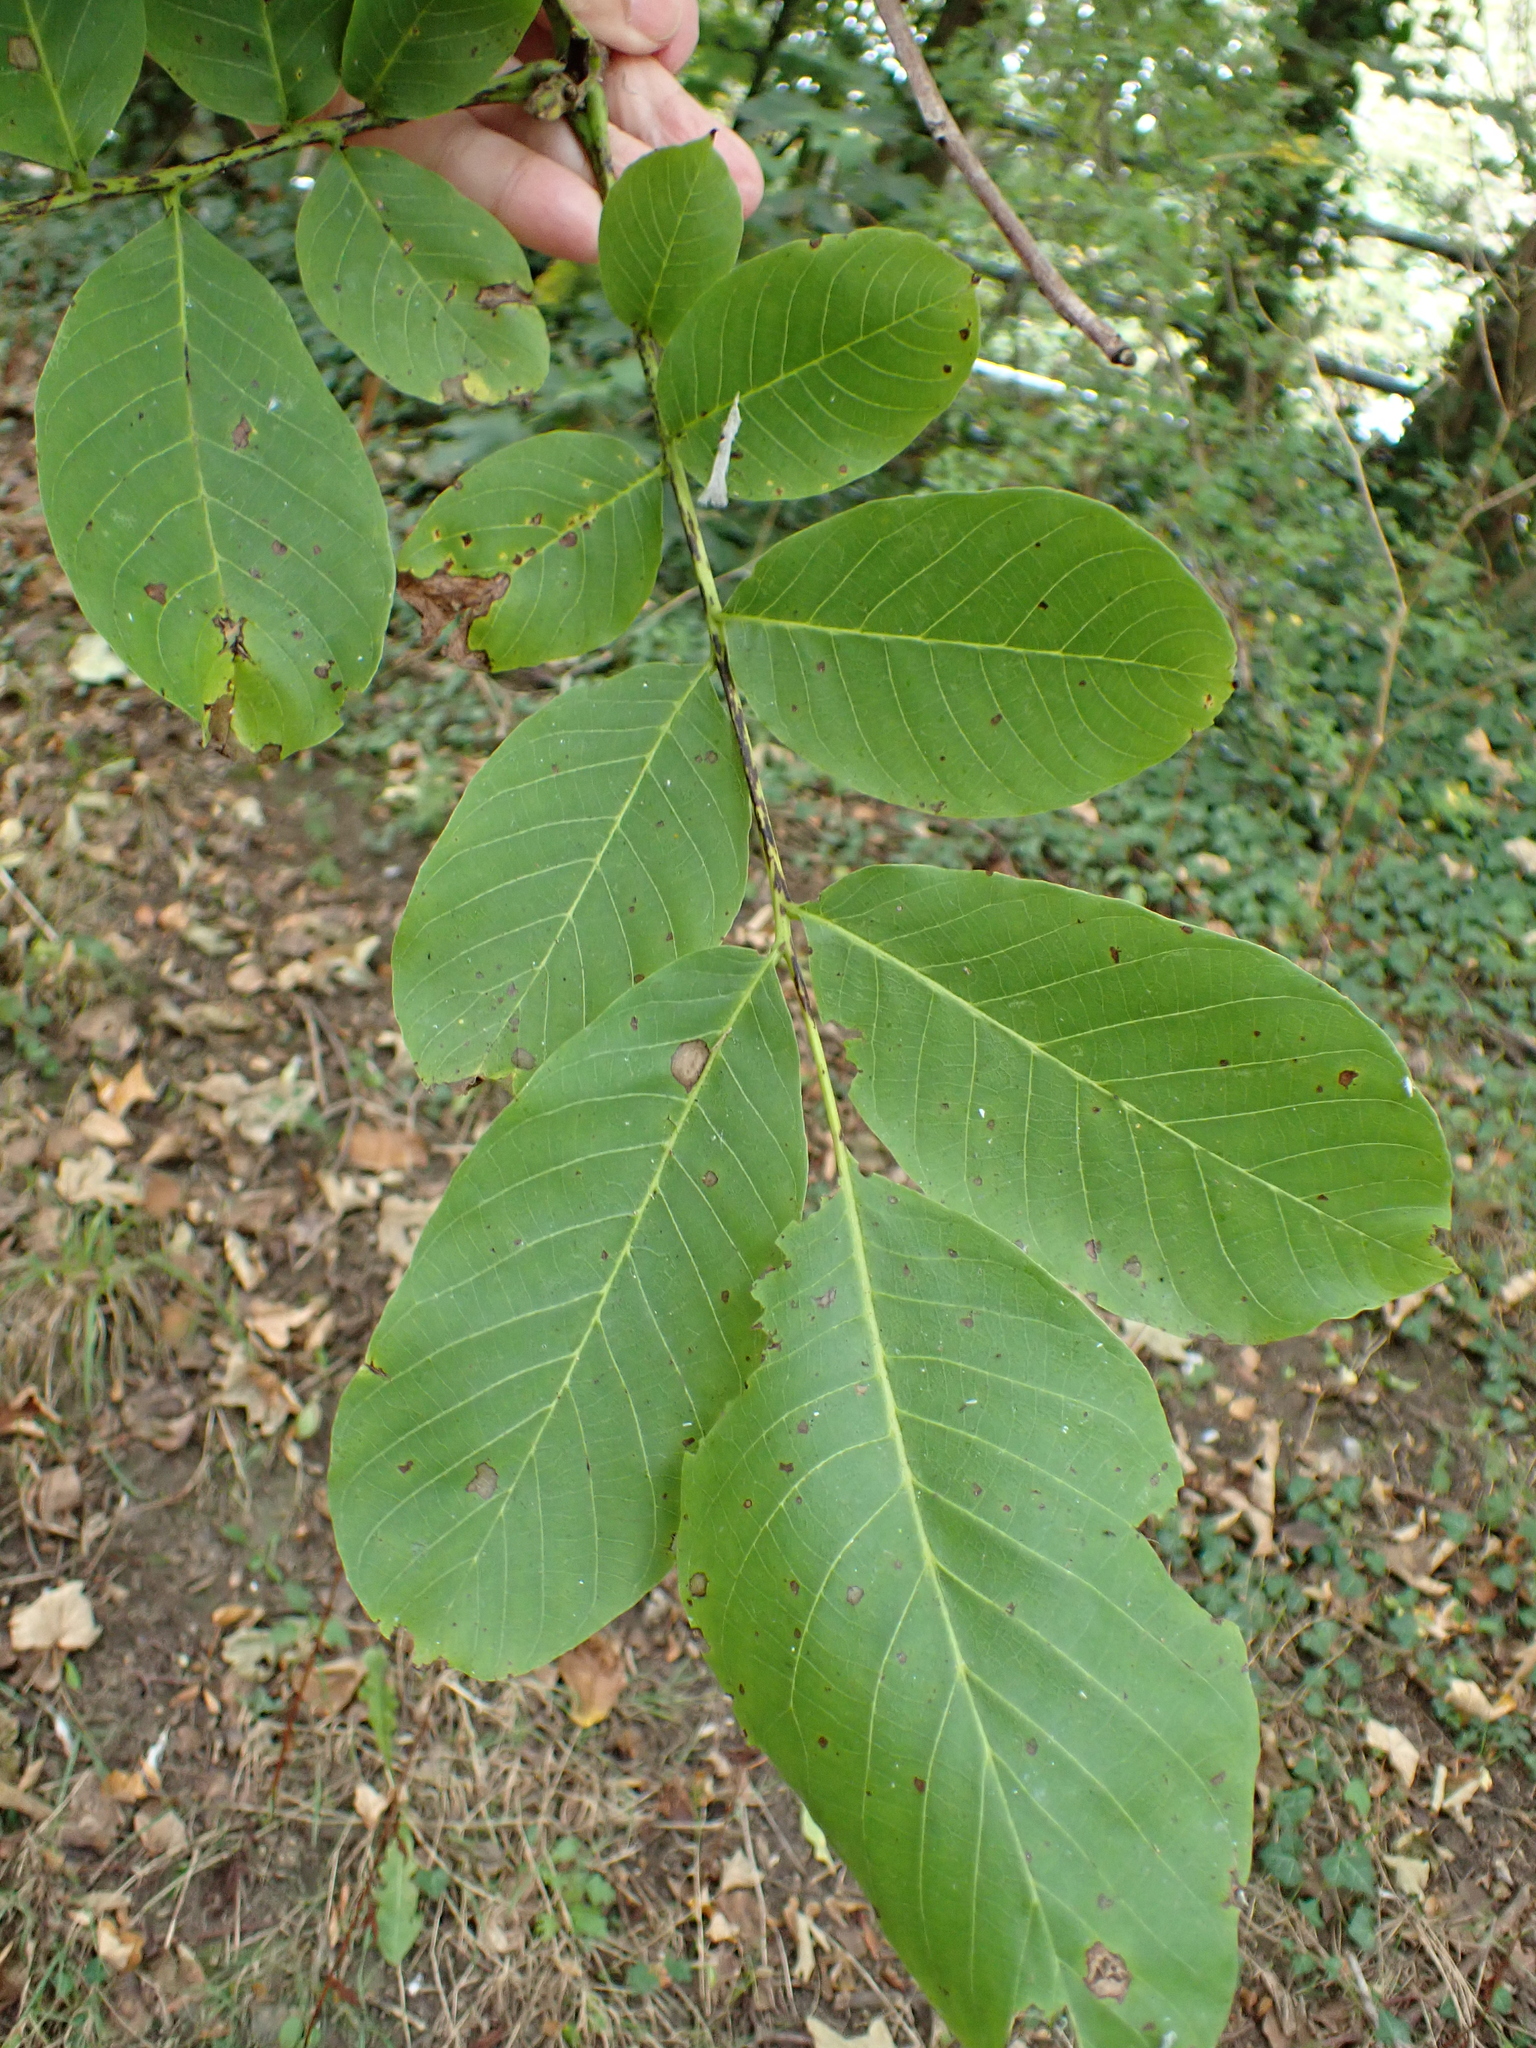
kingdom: Plantae
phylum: Tracheophyta
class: Magnoliopsida
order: Fagales
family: Juglandaceae
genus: Juglans
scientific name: Juglans regia
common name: Walnut
